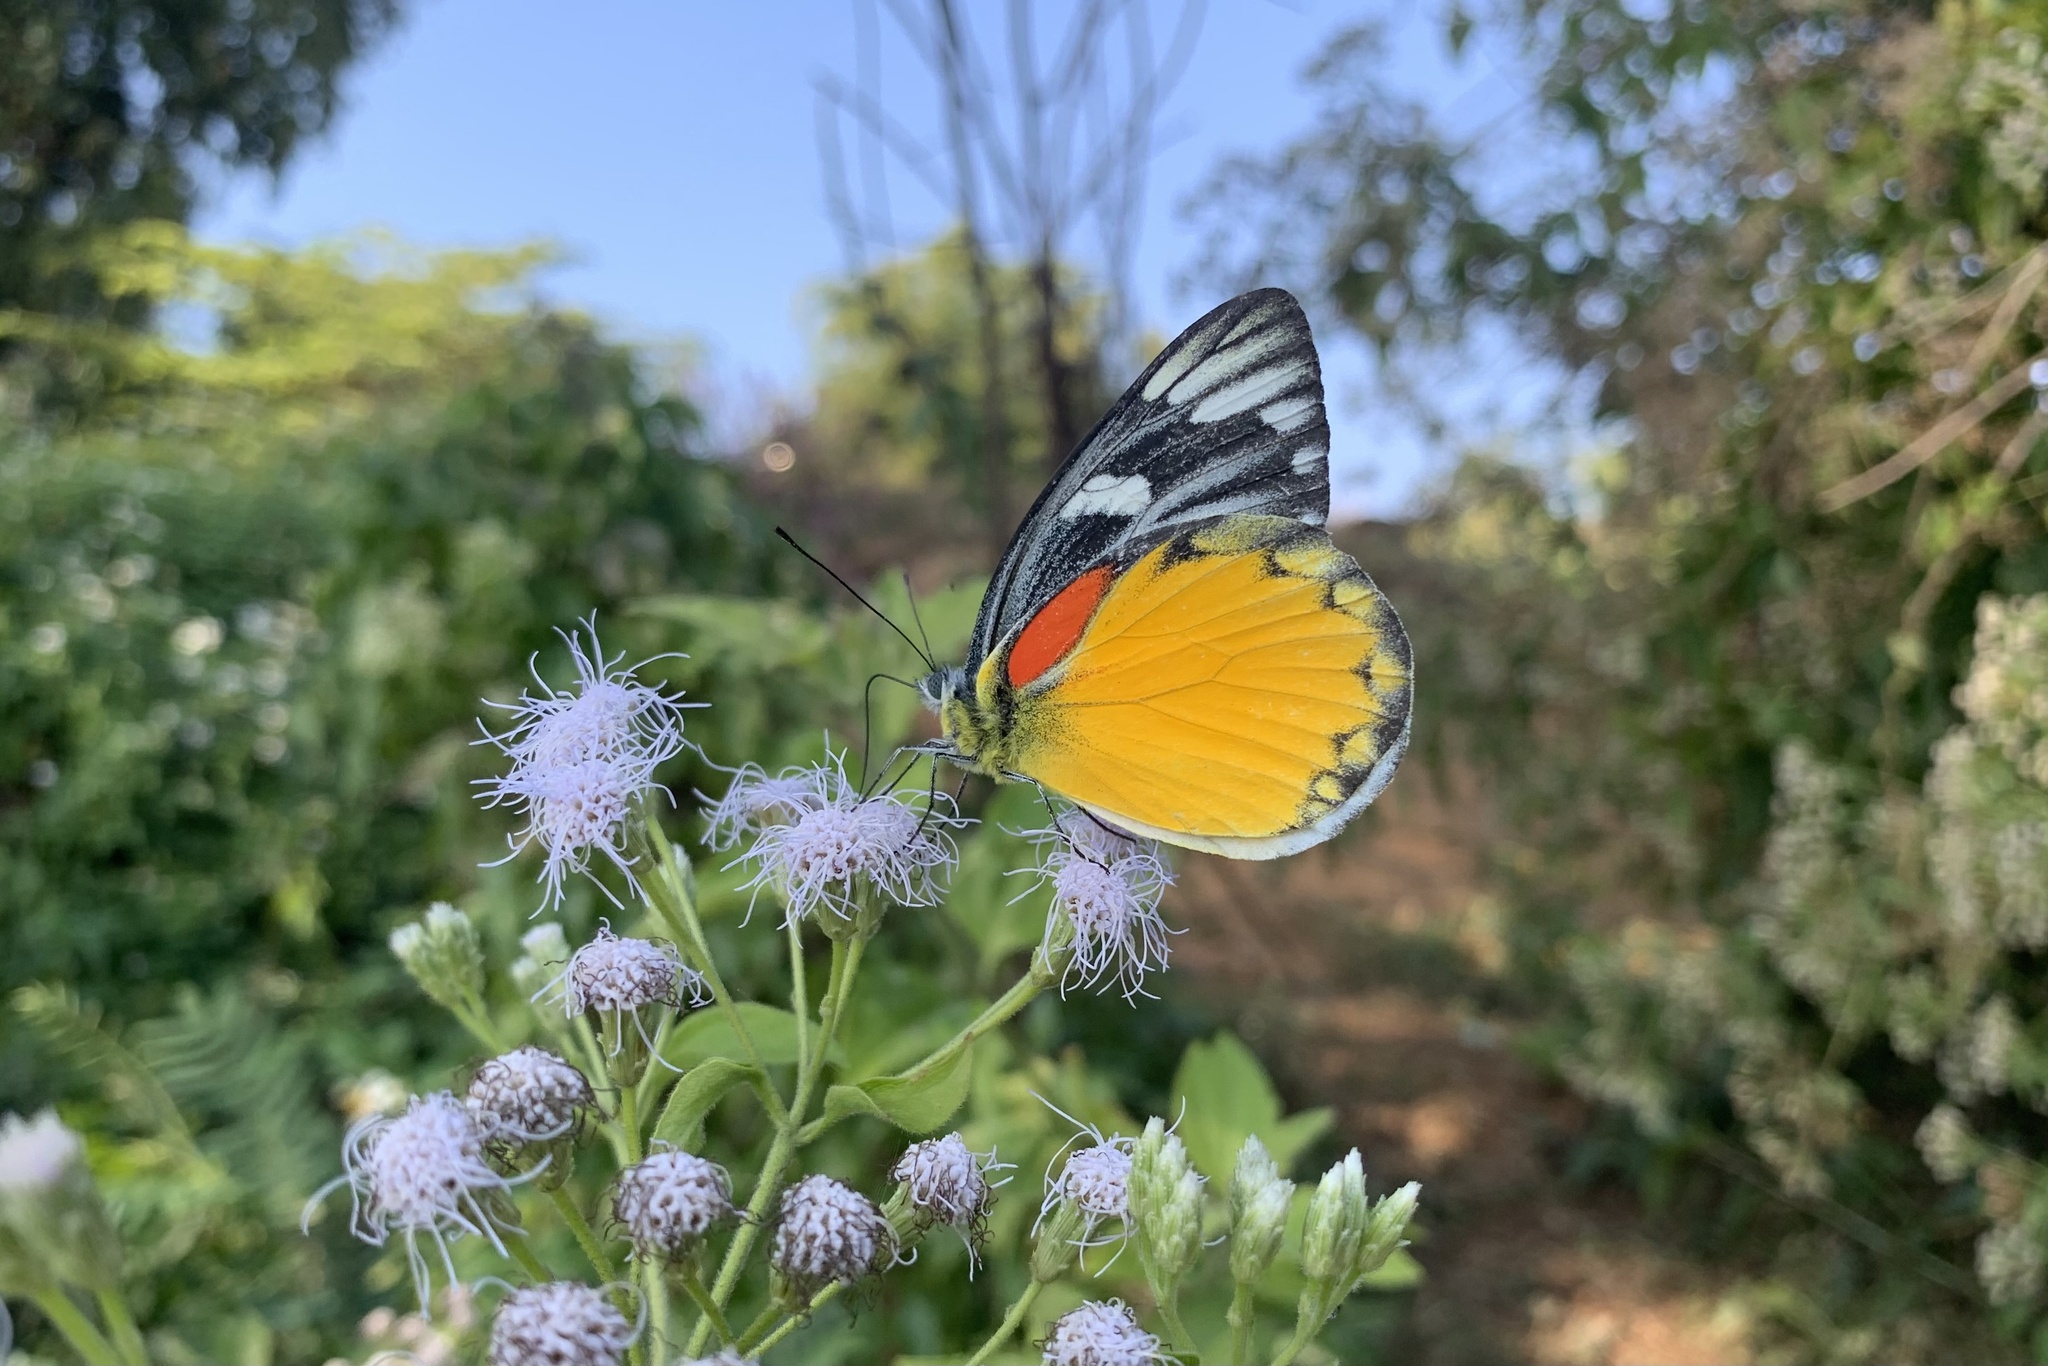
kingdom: Animalia
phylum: Arthropoda
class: Insecta
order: Lepidoptera
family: Pieridae
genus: Delias
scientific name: Delias descombesi
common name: Red-spot jezebel
